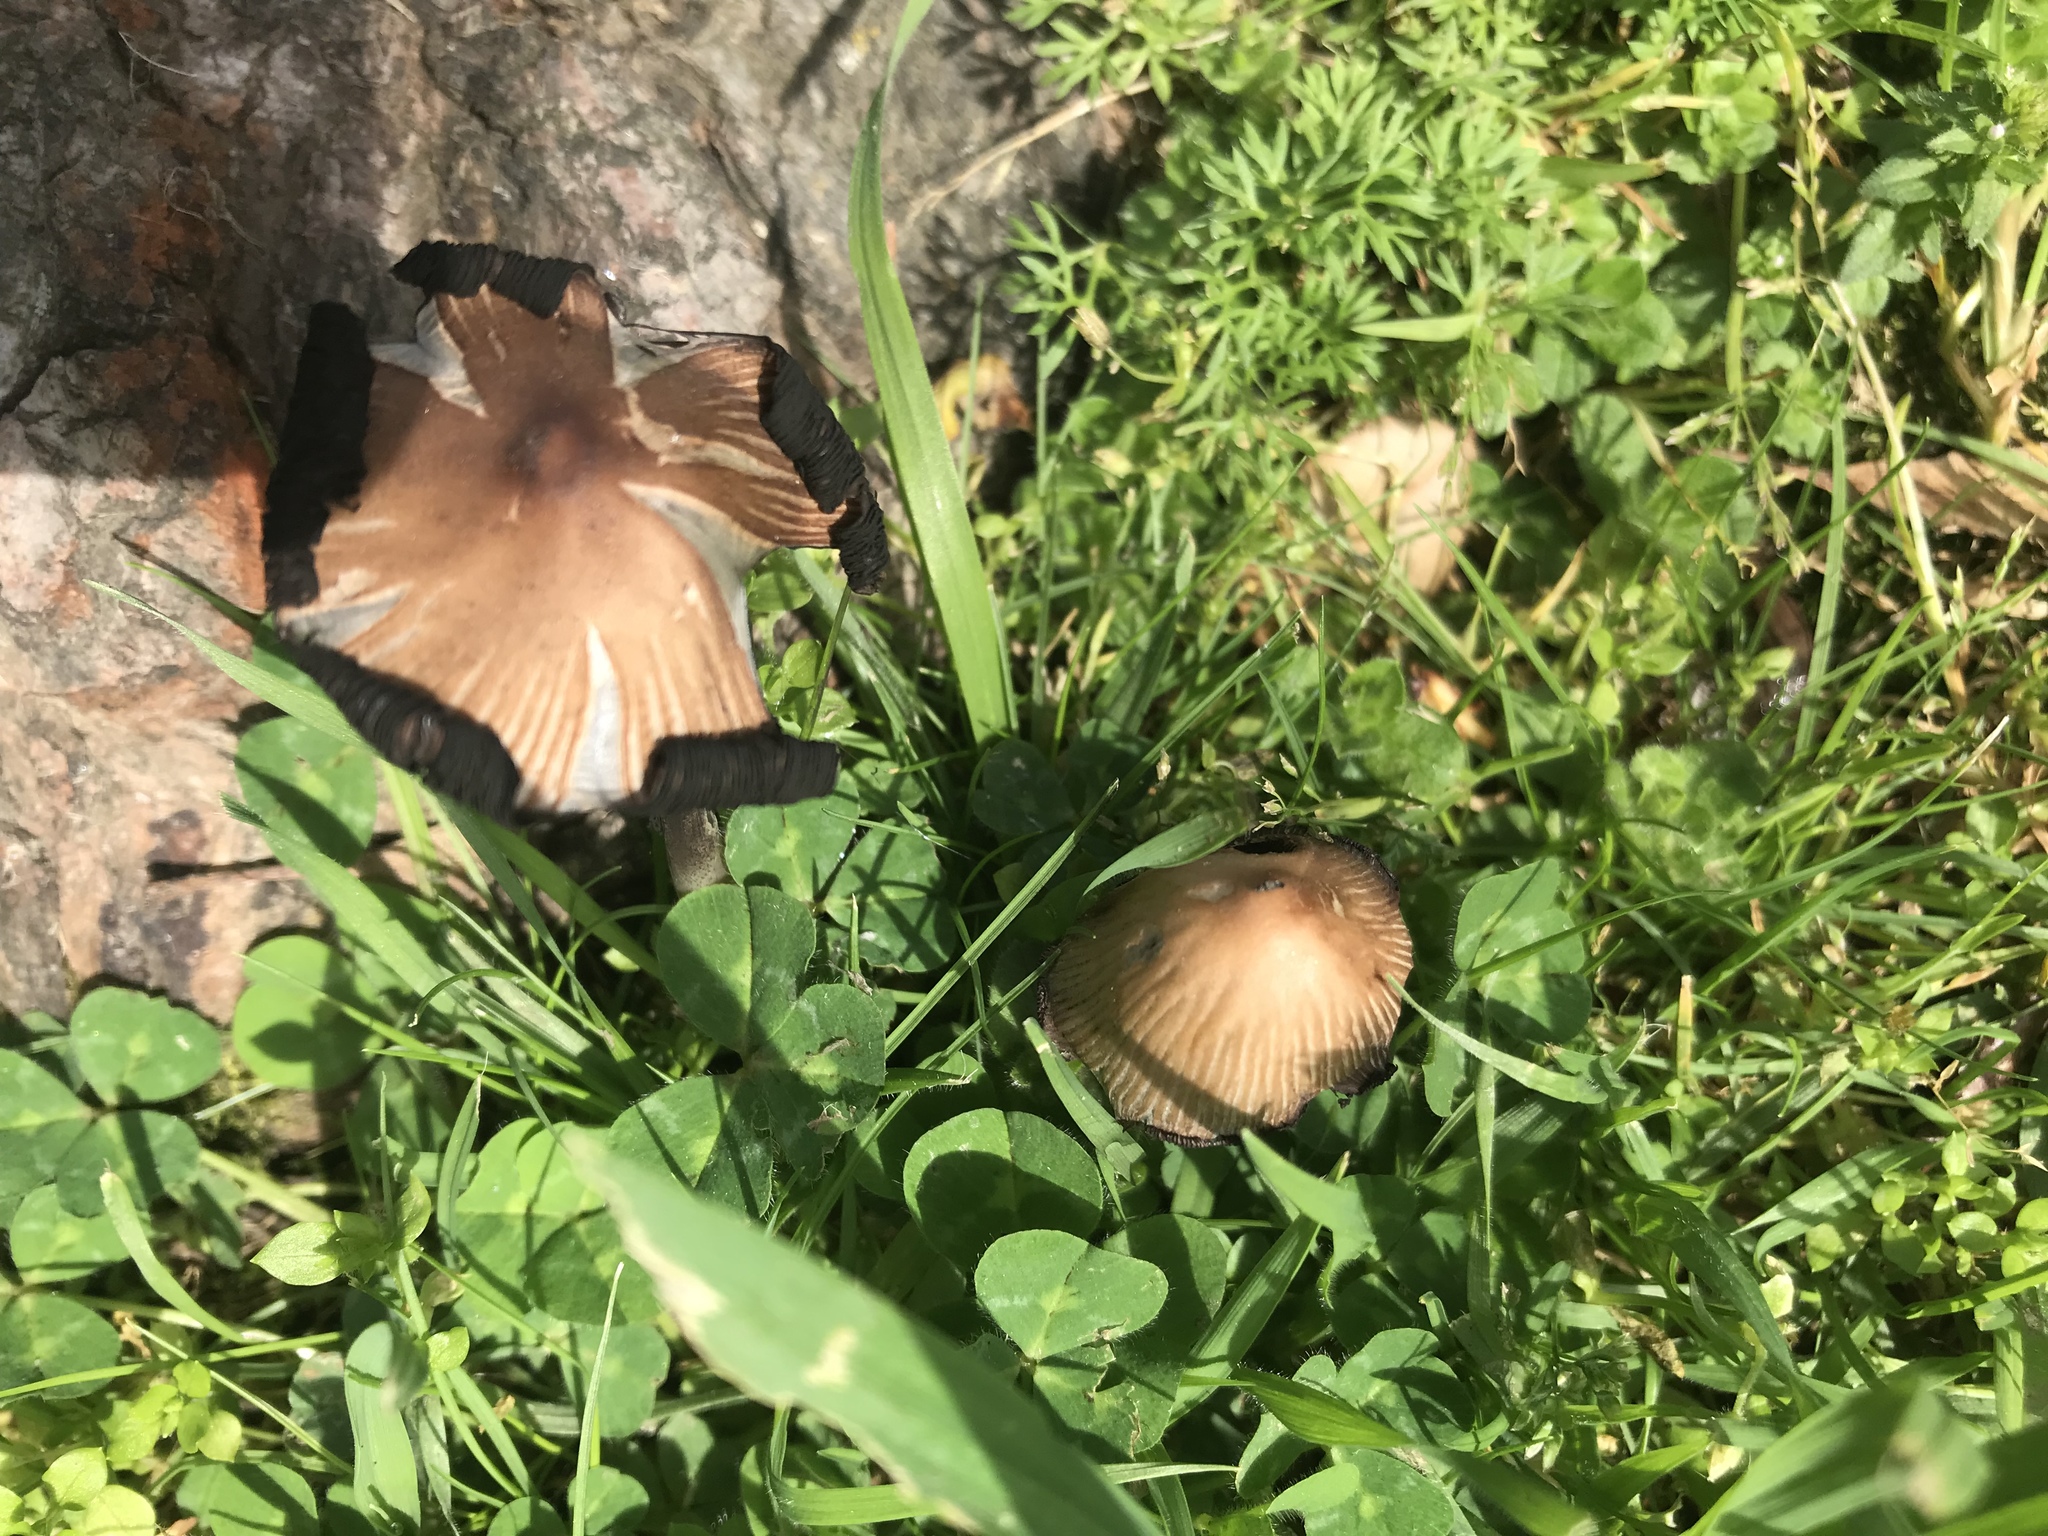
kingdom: Fungi
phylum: Basidiomycota
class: Agaricomycetes
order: Agaricales
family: Psathyrellaceae
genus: Coprinellus
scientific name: Coprinellus micaceus
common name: Glistening ink-cap
